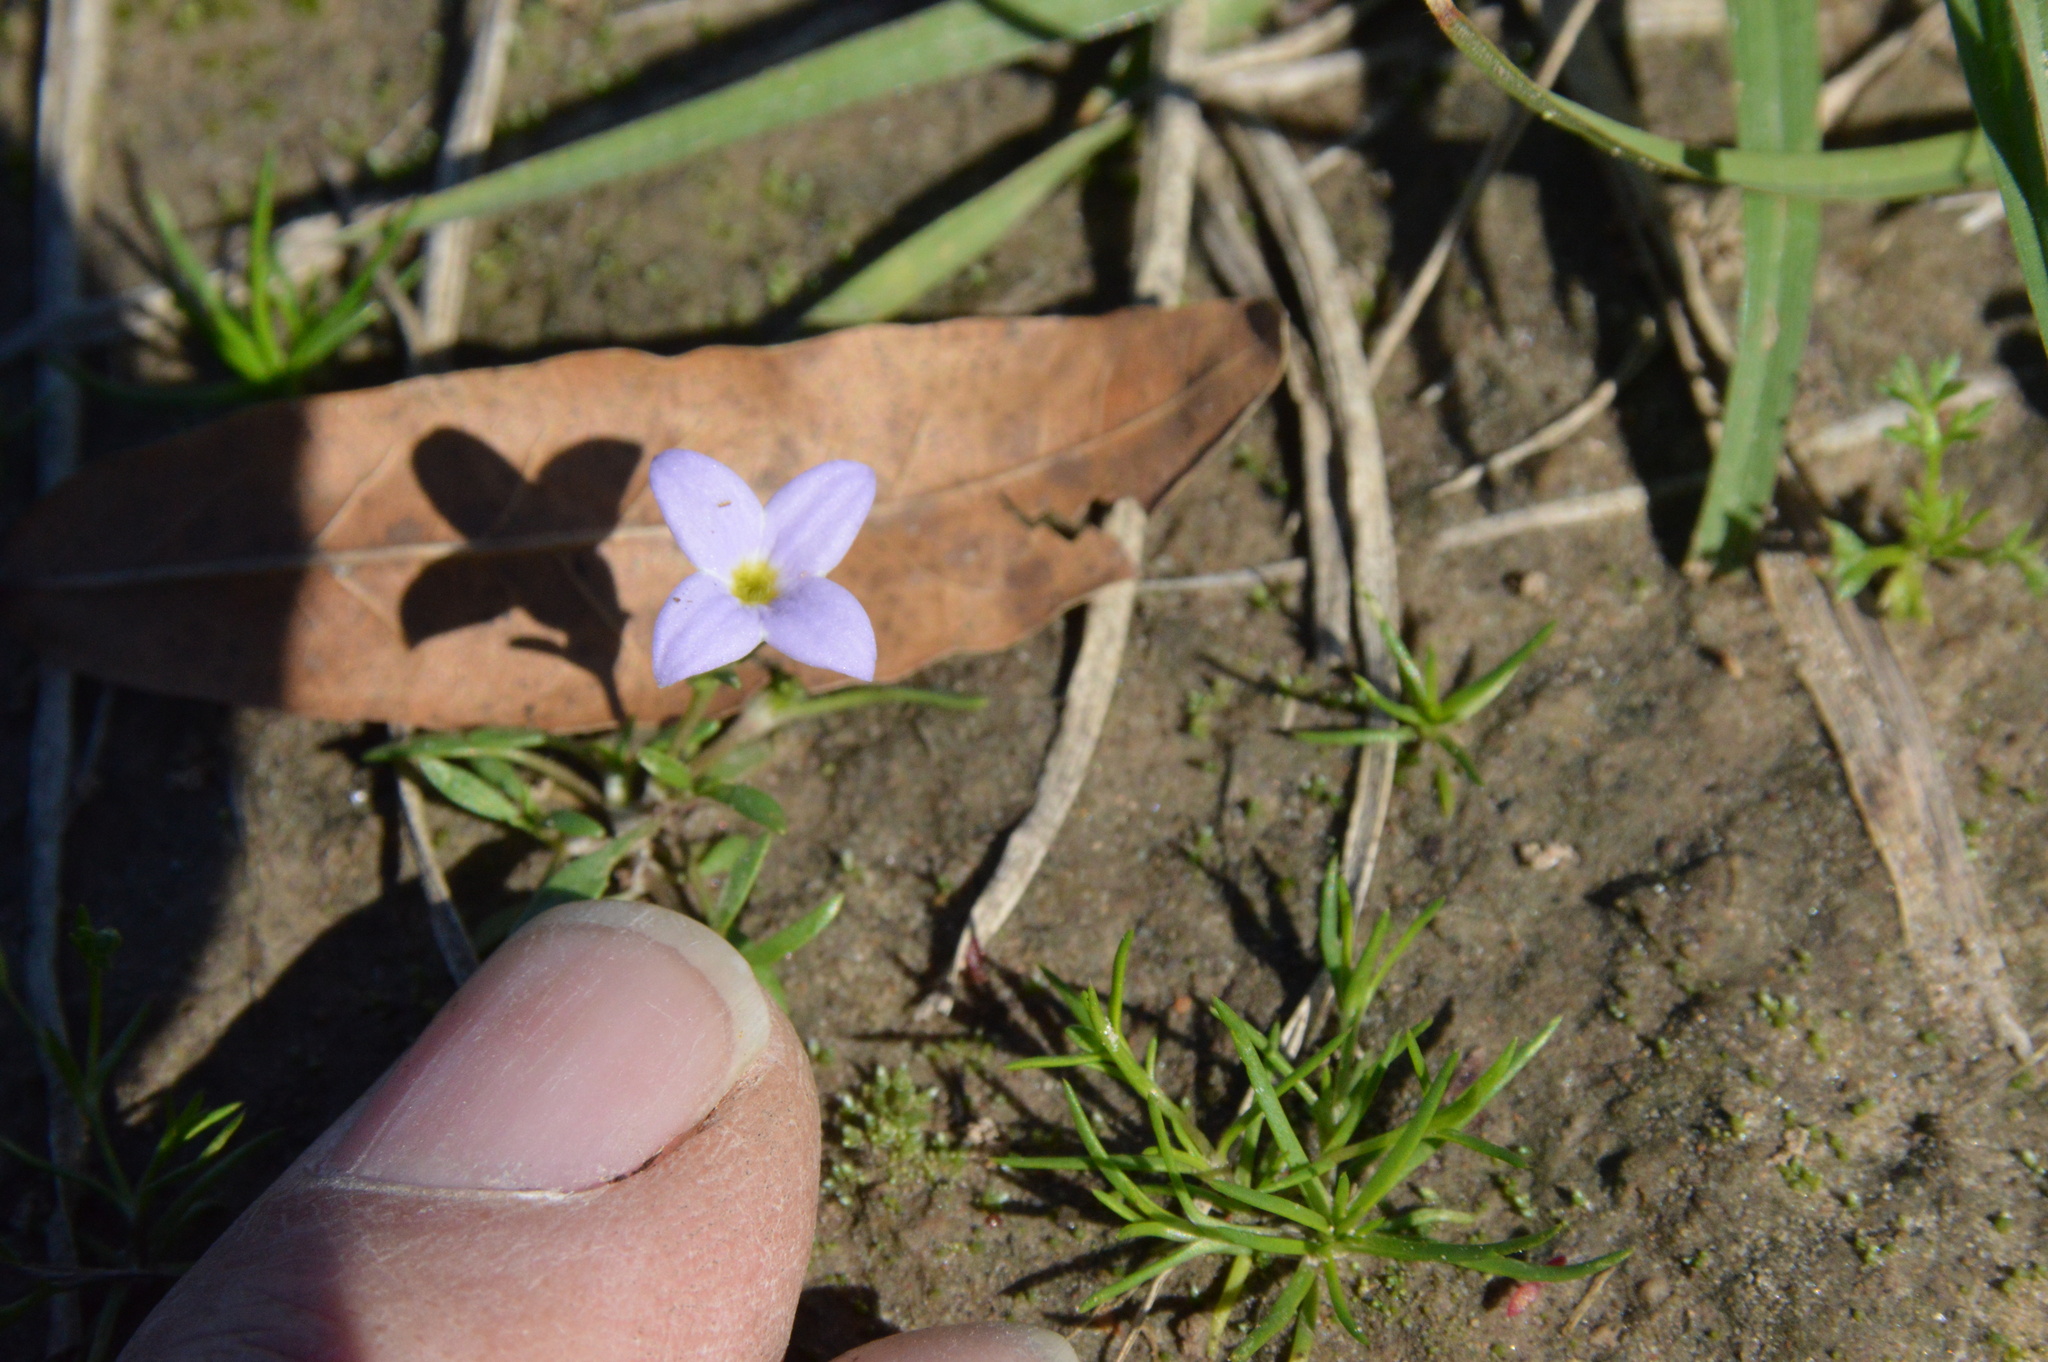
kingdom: Plantae
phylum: Tracheophyta
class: Magnoliopsida
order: Gentianales
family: Rubiaceae
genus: Houstonia
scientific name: Houstonia rosea
